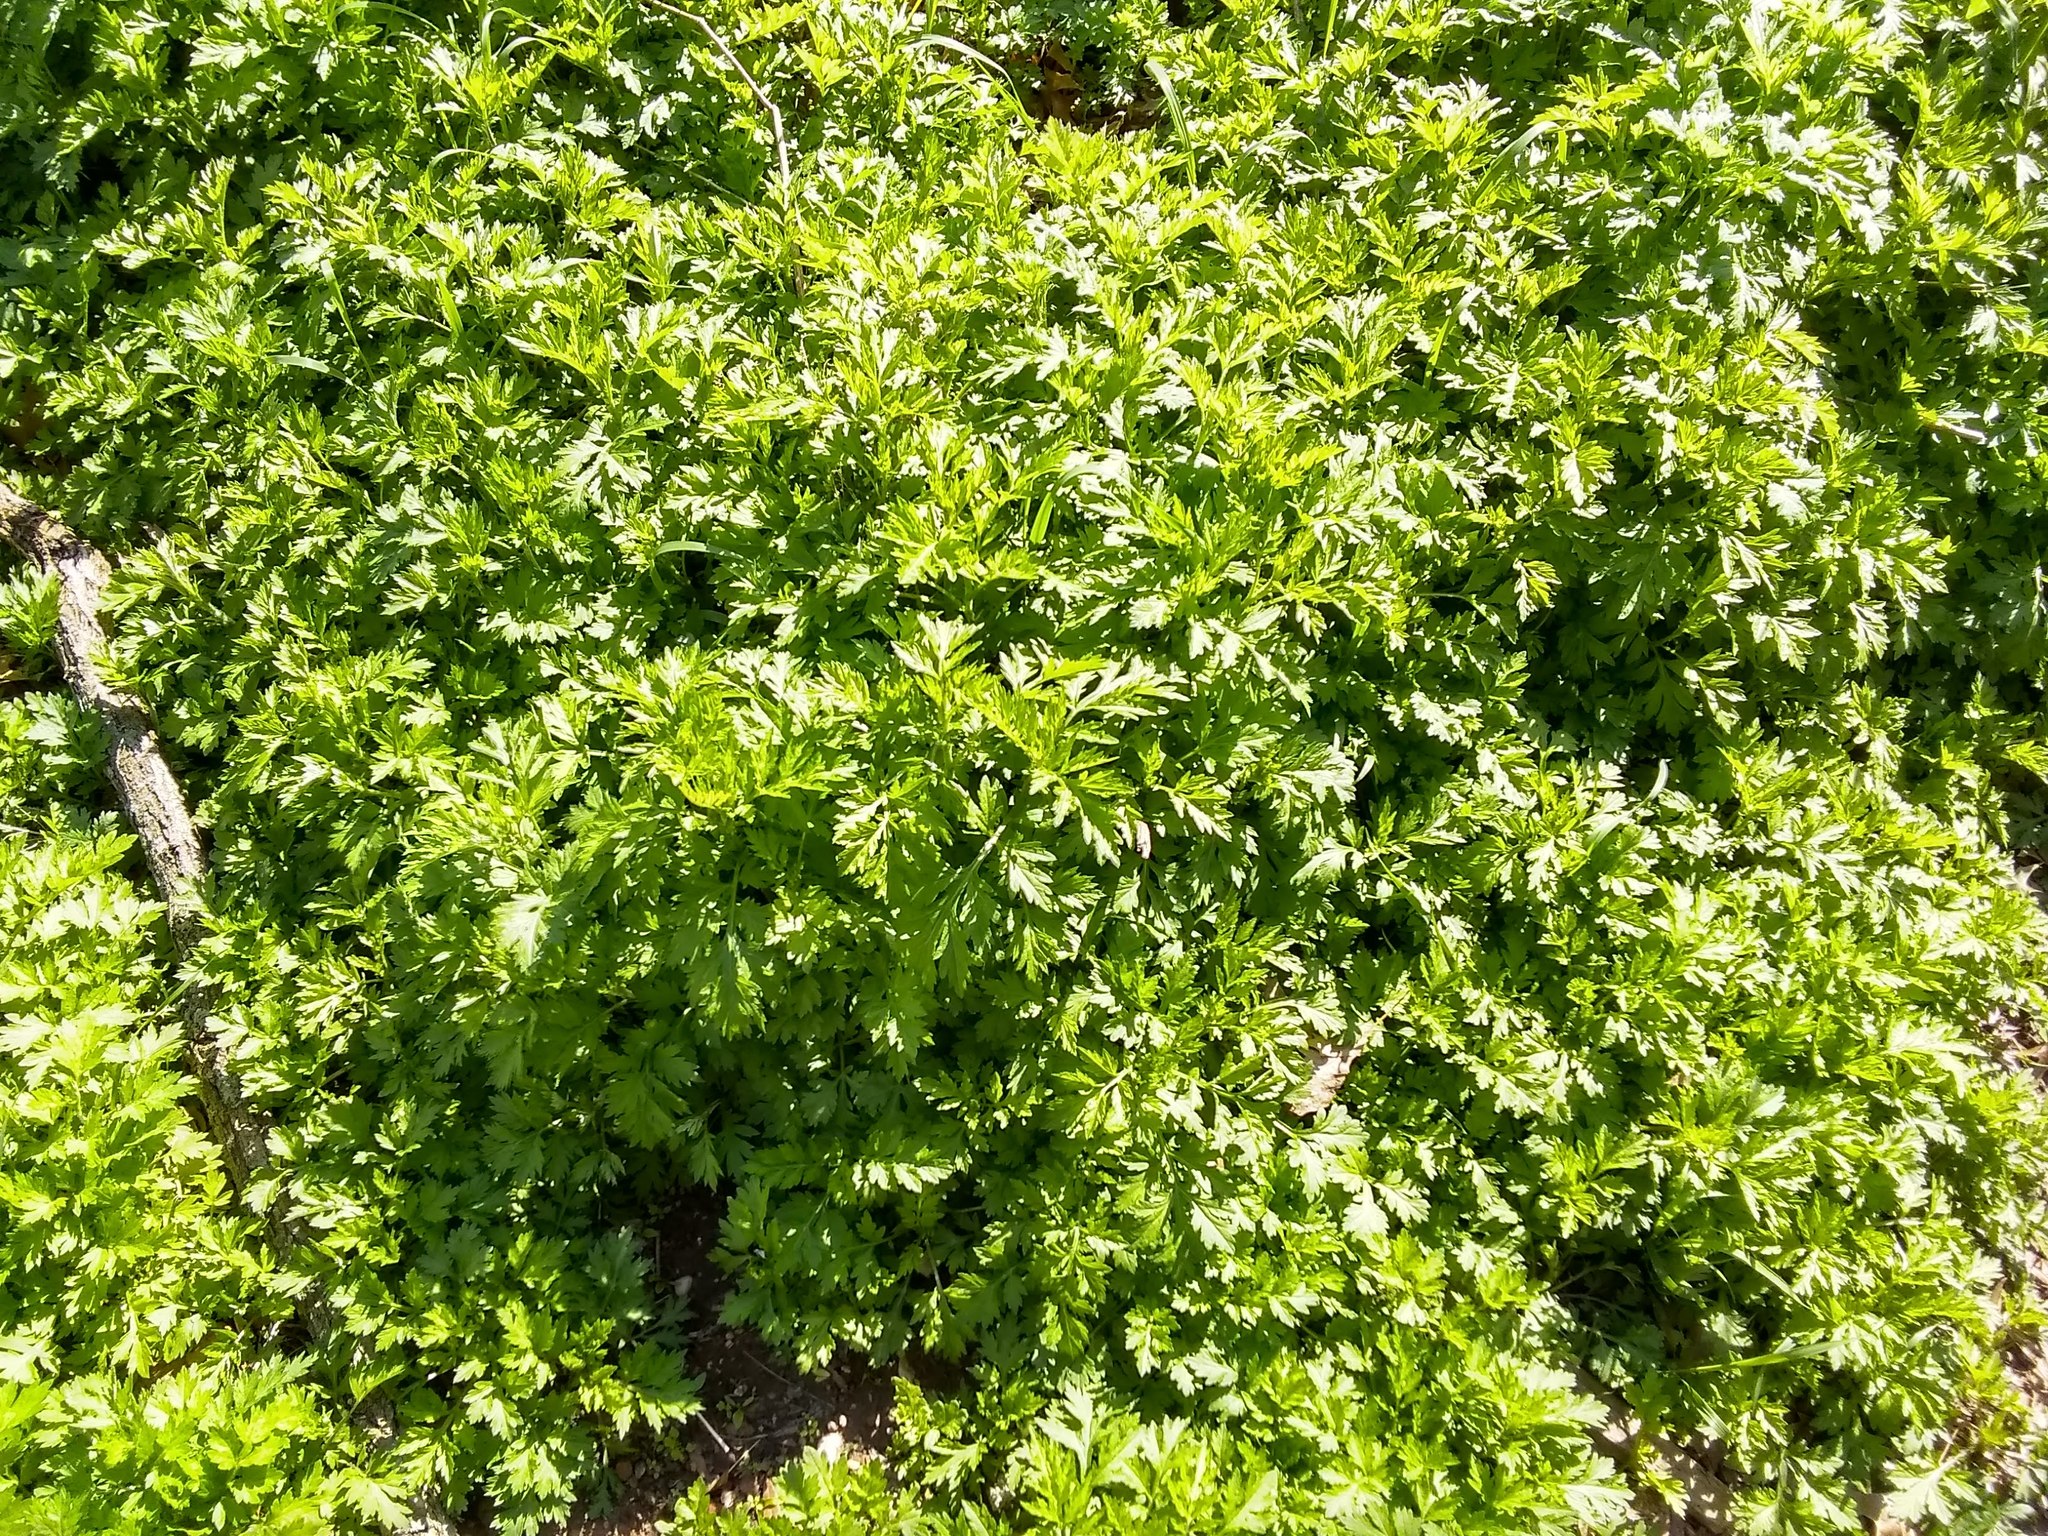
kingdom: Plantae
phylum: Tracheophyta
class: Magnoliopsida
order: Asterales
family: Asteraceae
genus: Artemisia
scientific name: Artemisia vulgaris
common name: Mugwort
